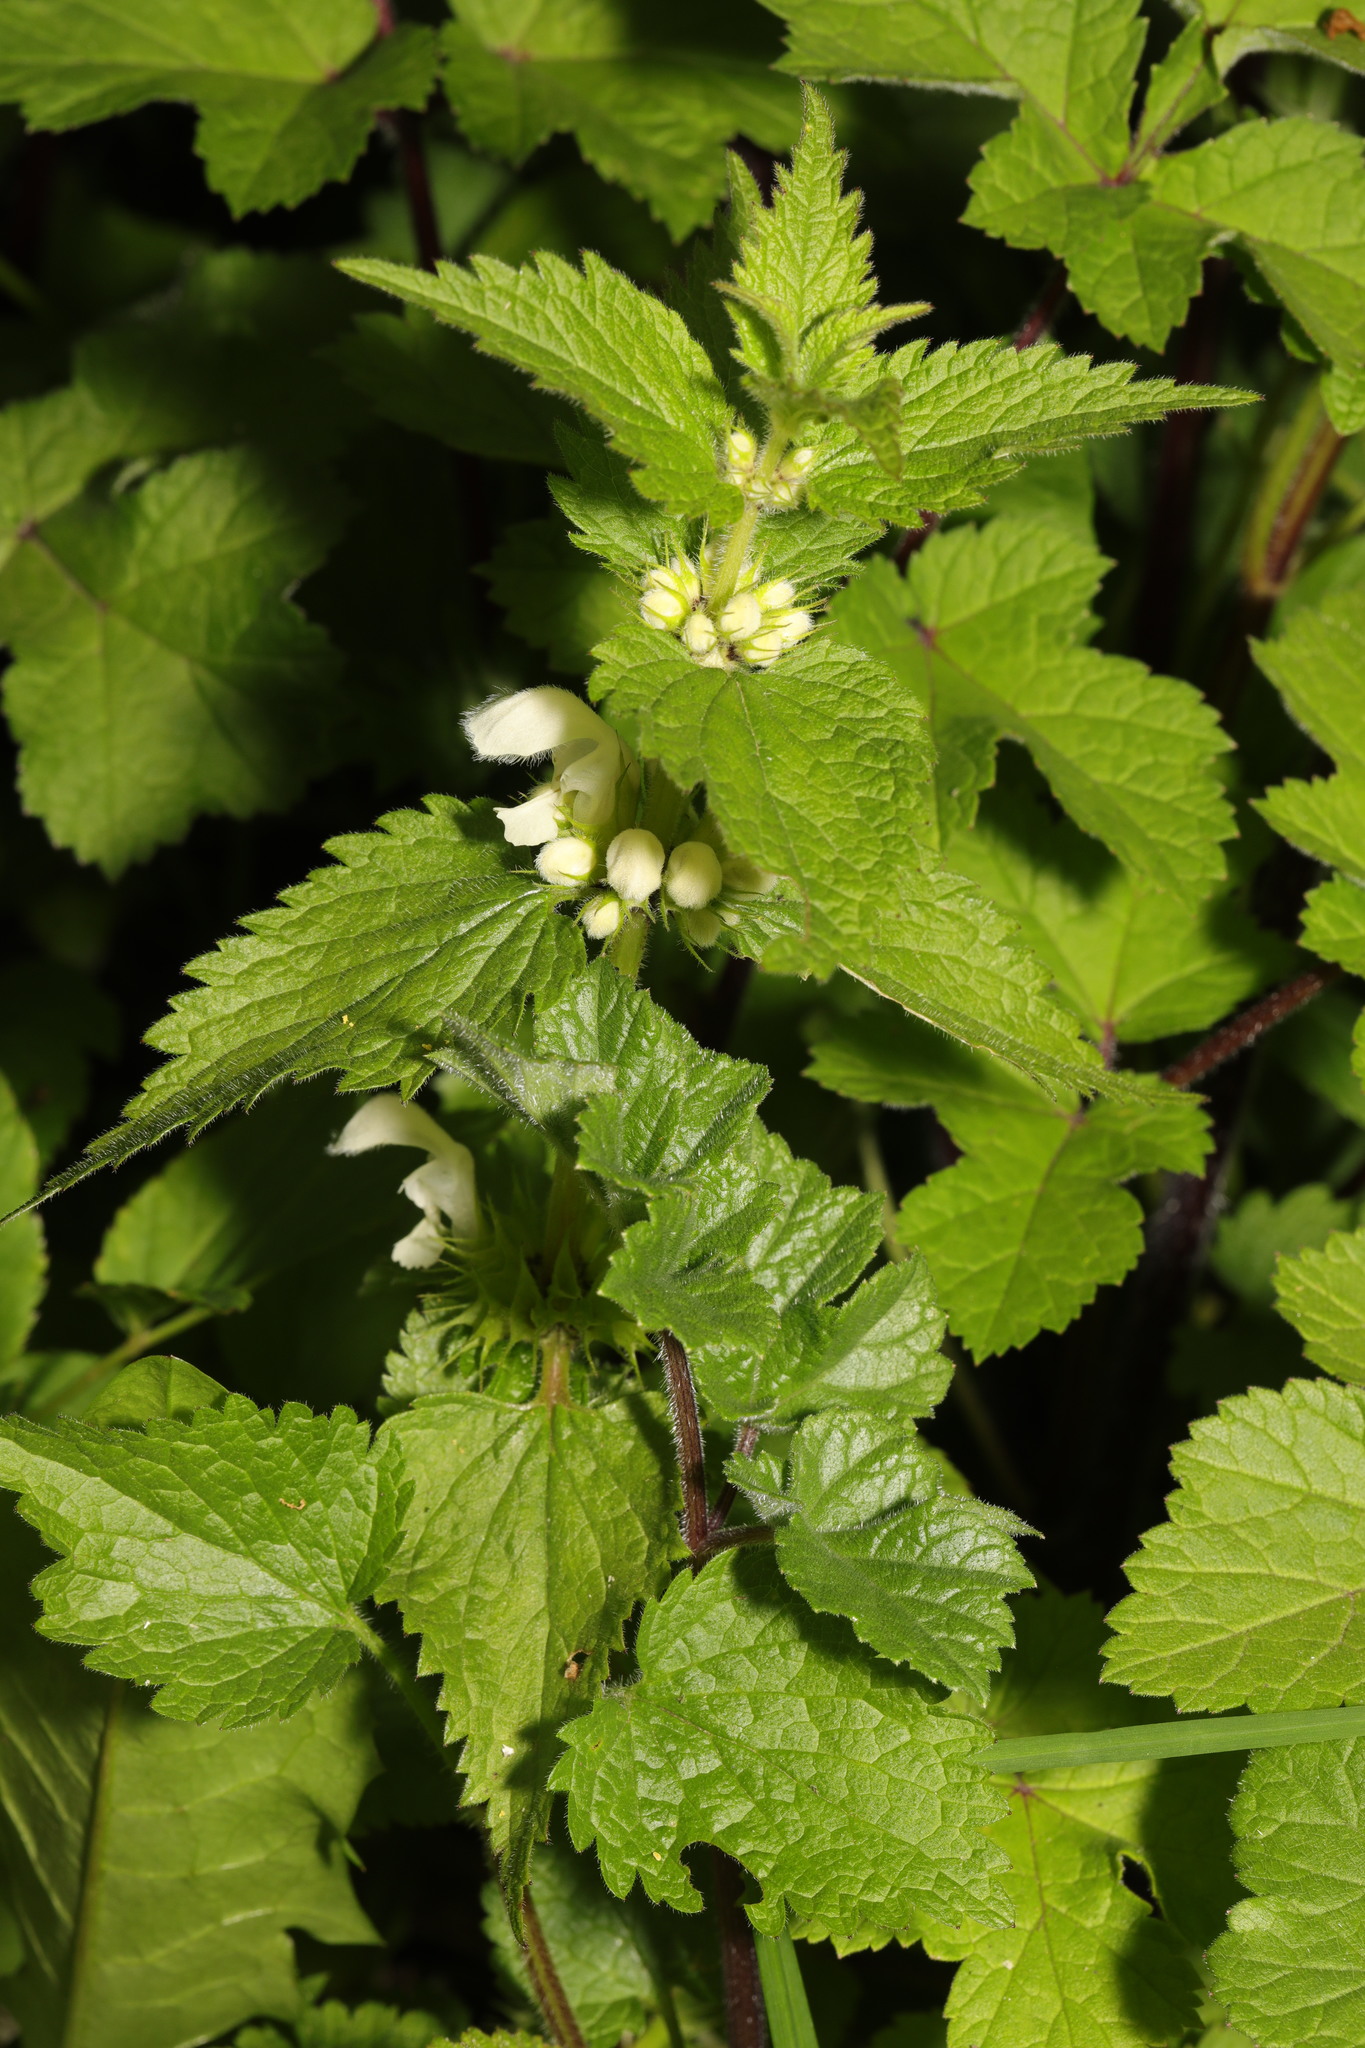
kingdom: Plantae
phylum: Tracheophyta
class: Magnoliopsida
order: Lamiales
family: Lamiaceae
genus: Lamium
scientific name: Lamium album
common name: White dead-nettle
